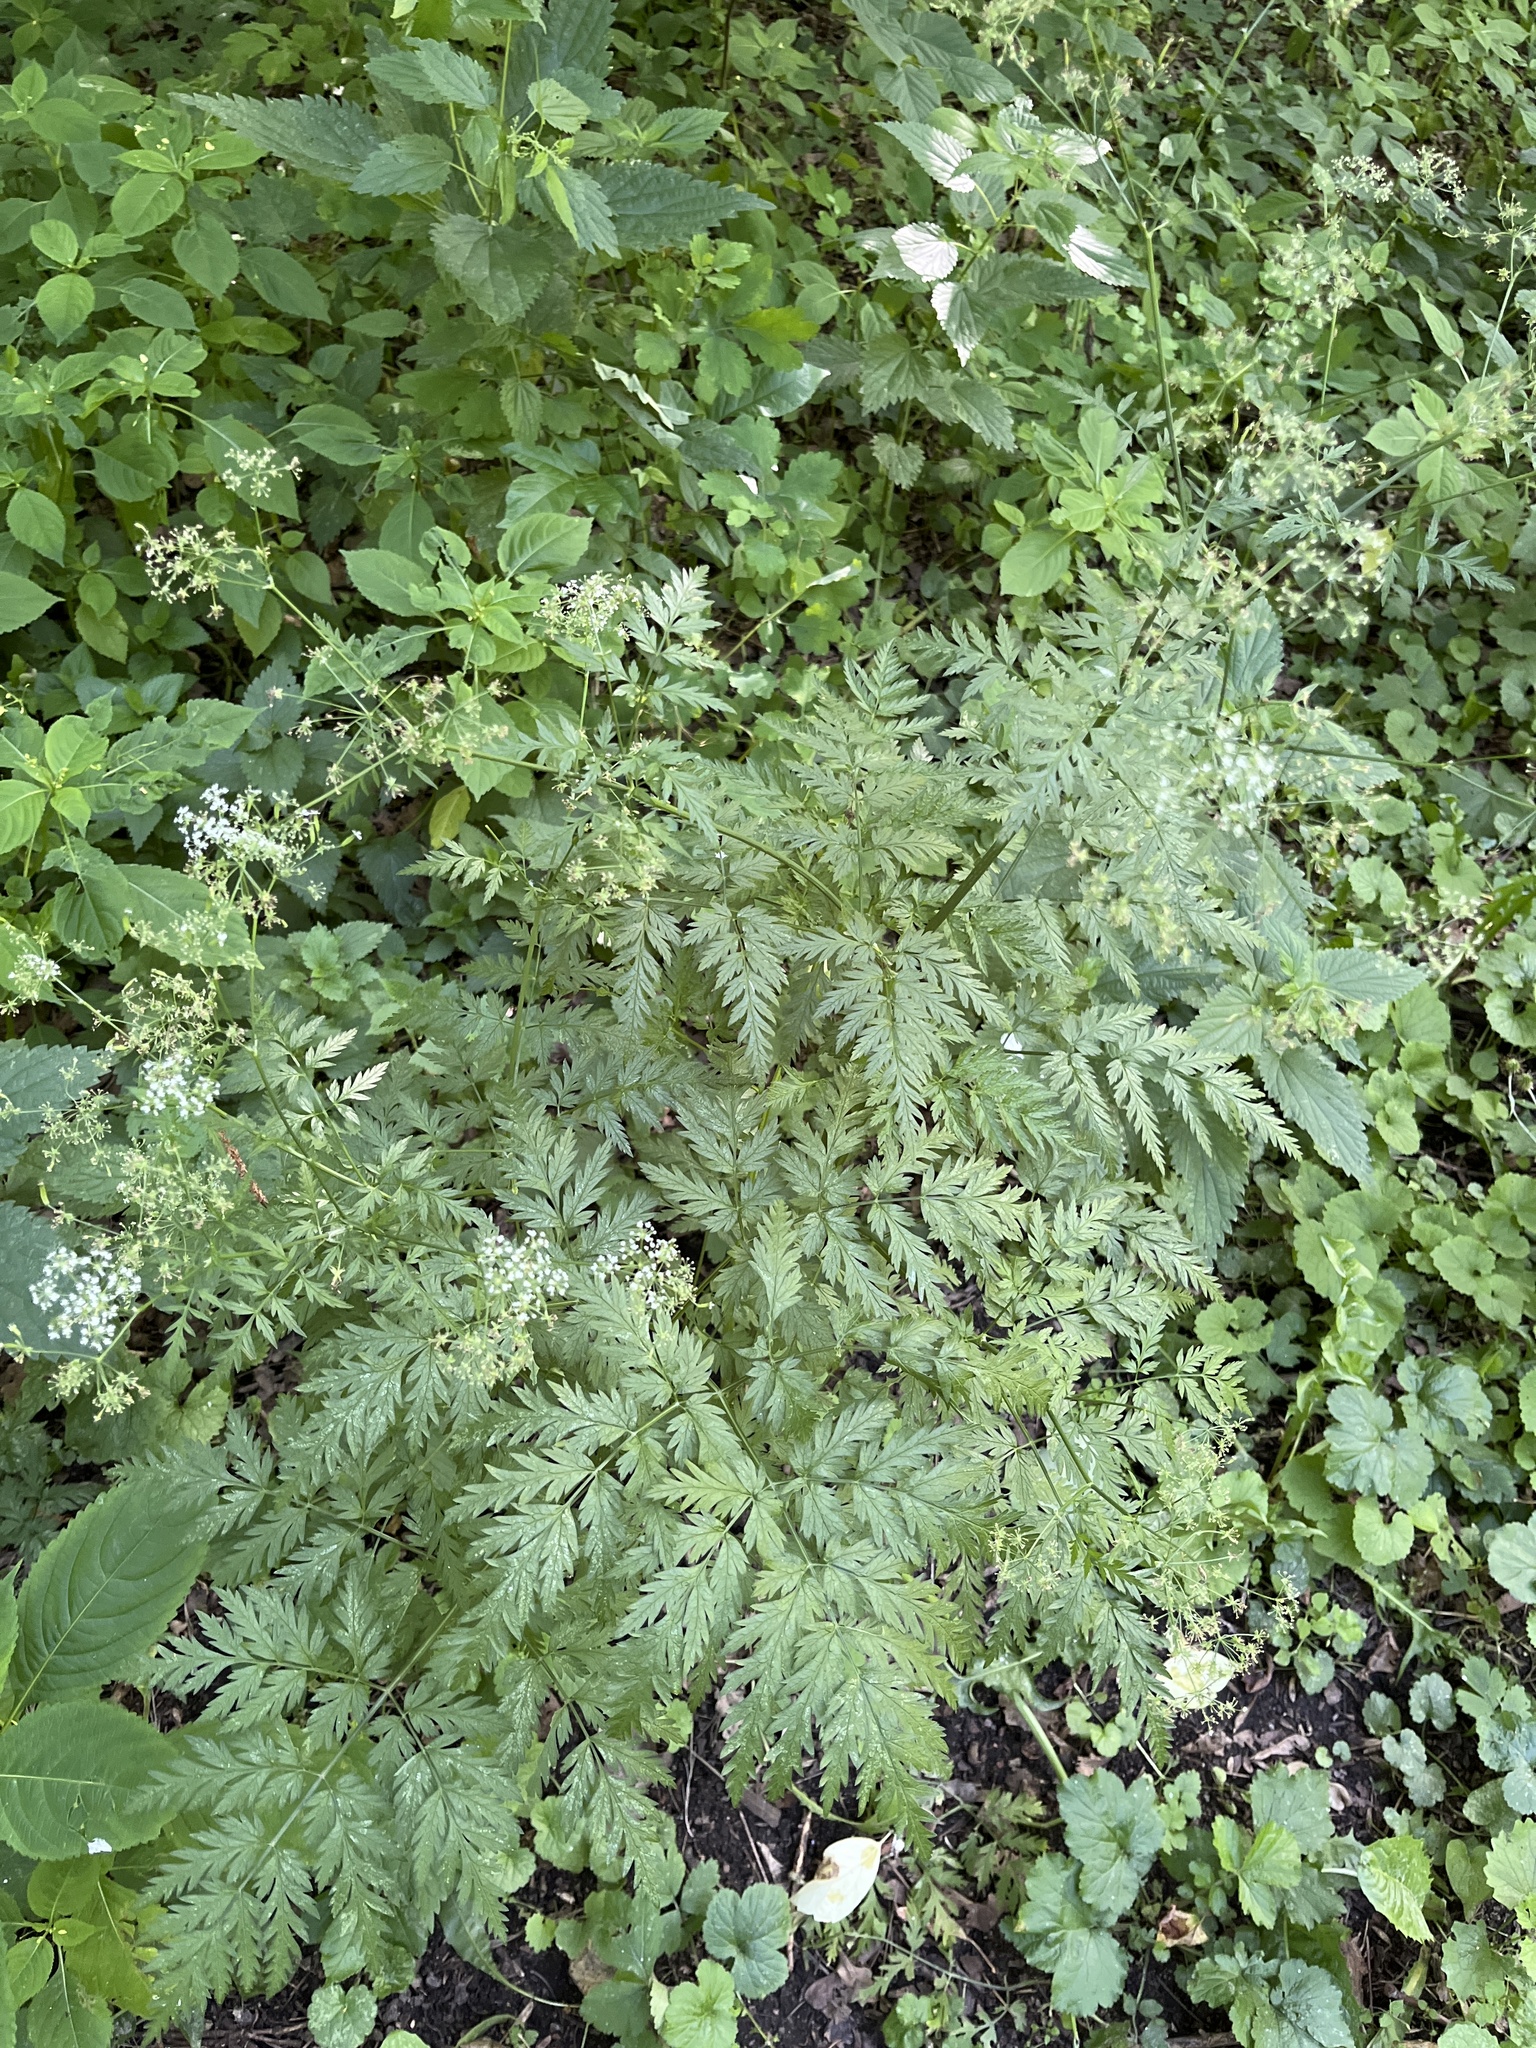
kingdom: Plantae
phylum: Tracheophyta
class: Magnoliopsida
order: Apiales
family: Apiaceae
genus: Anthriscus
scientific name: Anthriscus sylvestris
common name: Cow parsley
